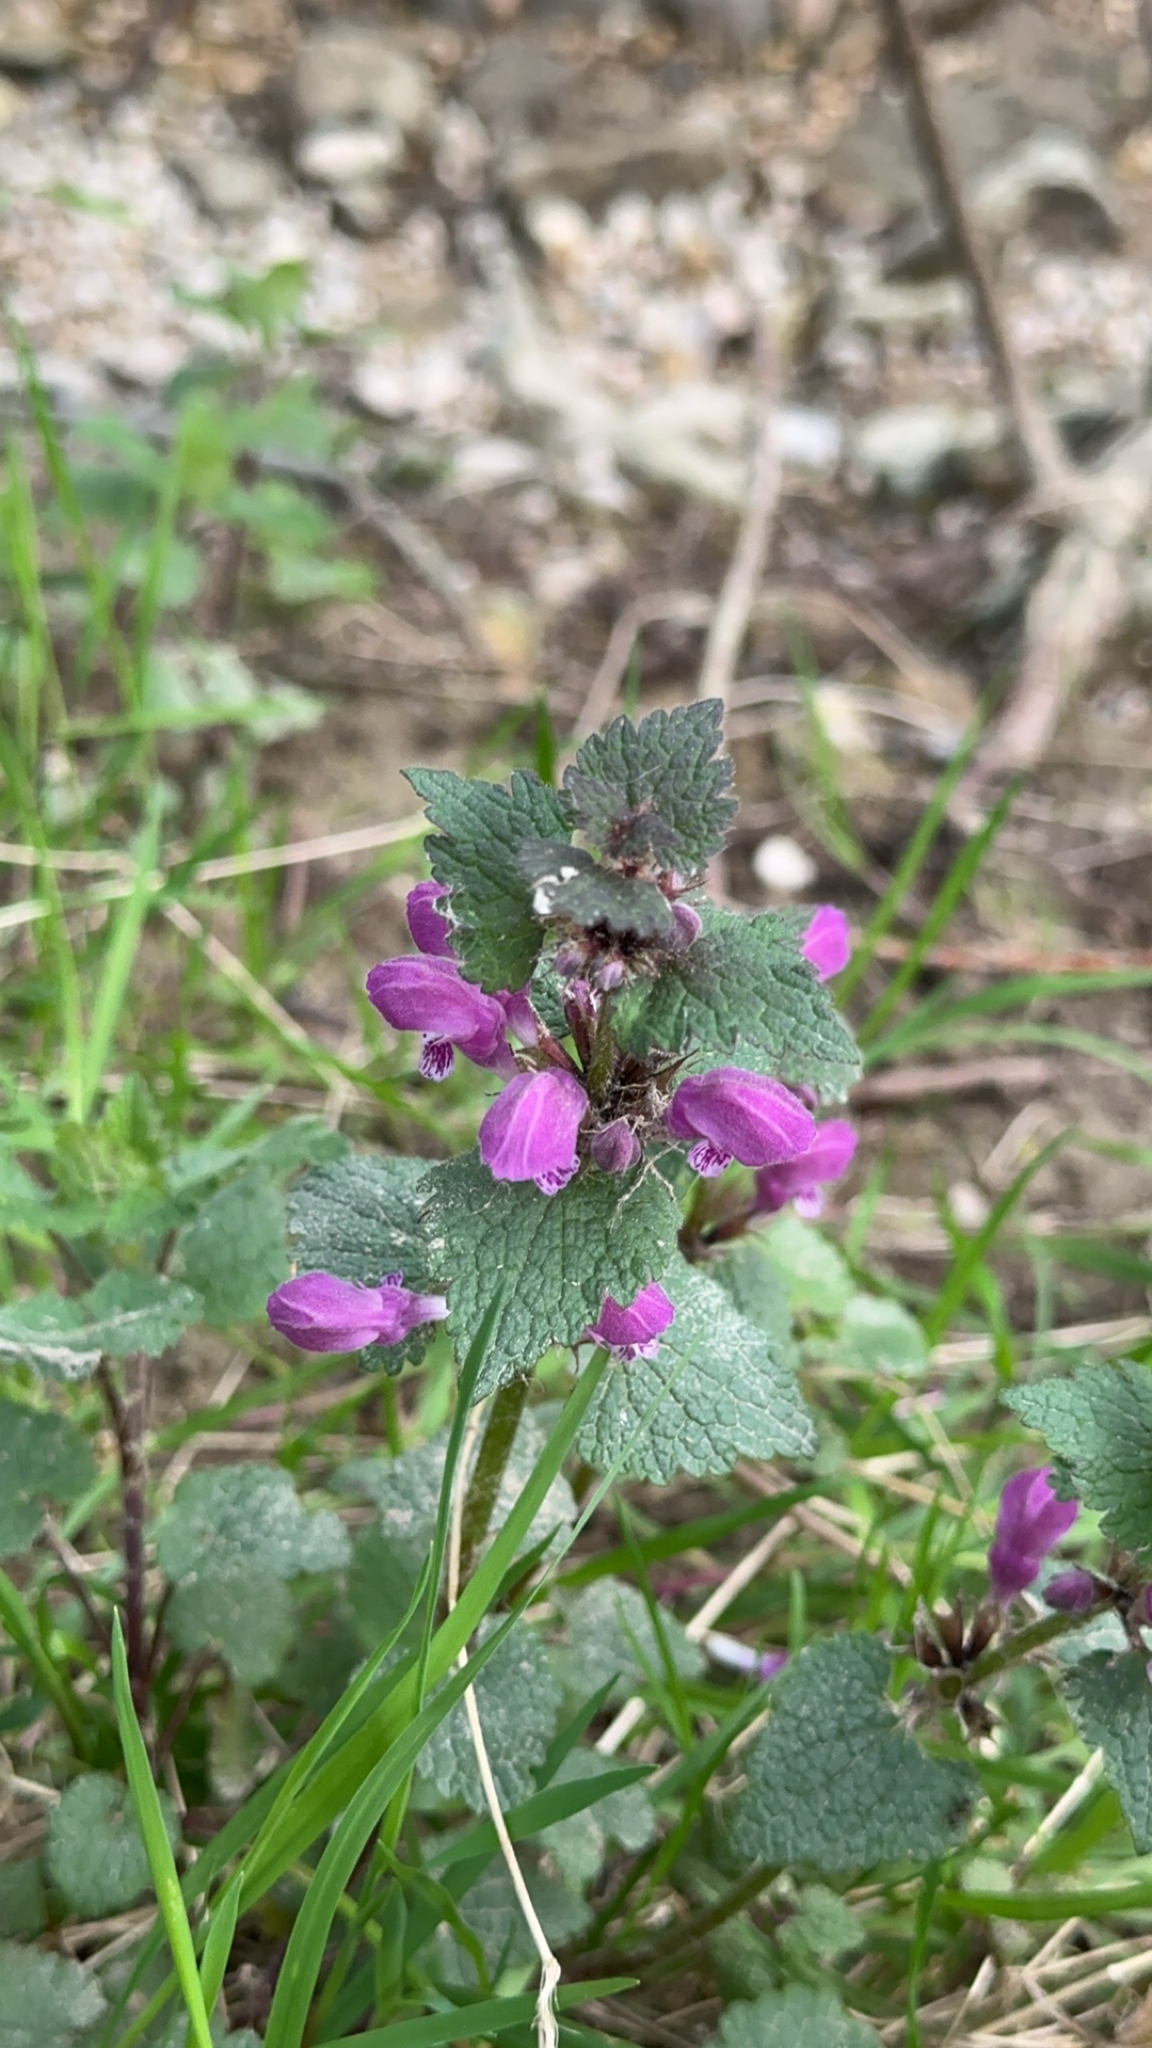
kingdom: Plantae
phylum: Tracheophyta
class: Magnoliopsida
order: Lamiales
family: Lamiaceae
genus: Lamium
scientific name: Lamium maculatum
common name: Spotted dead-nettle
